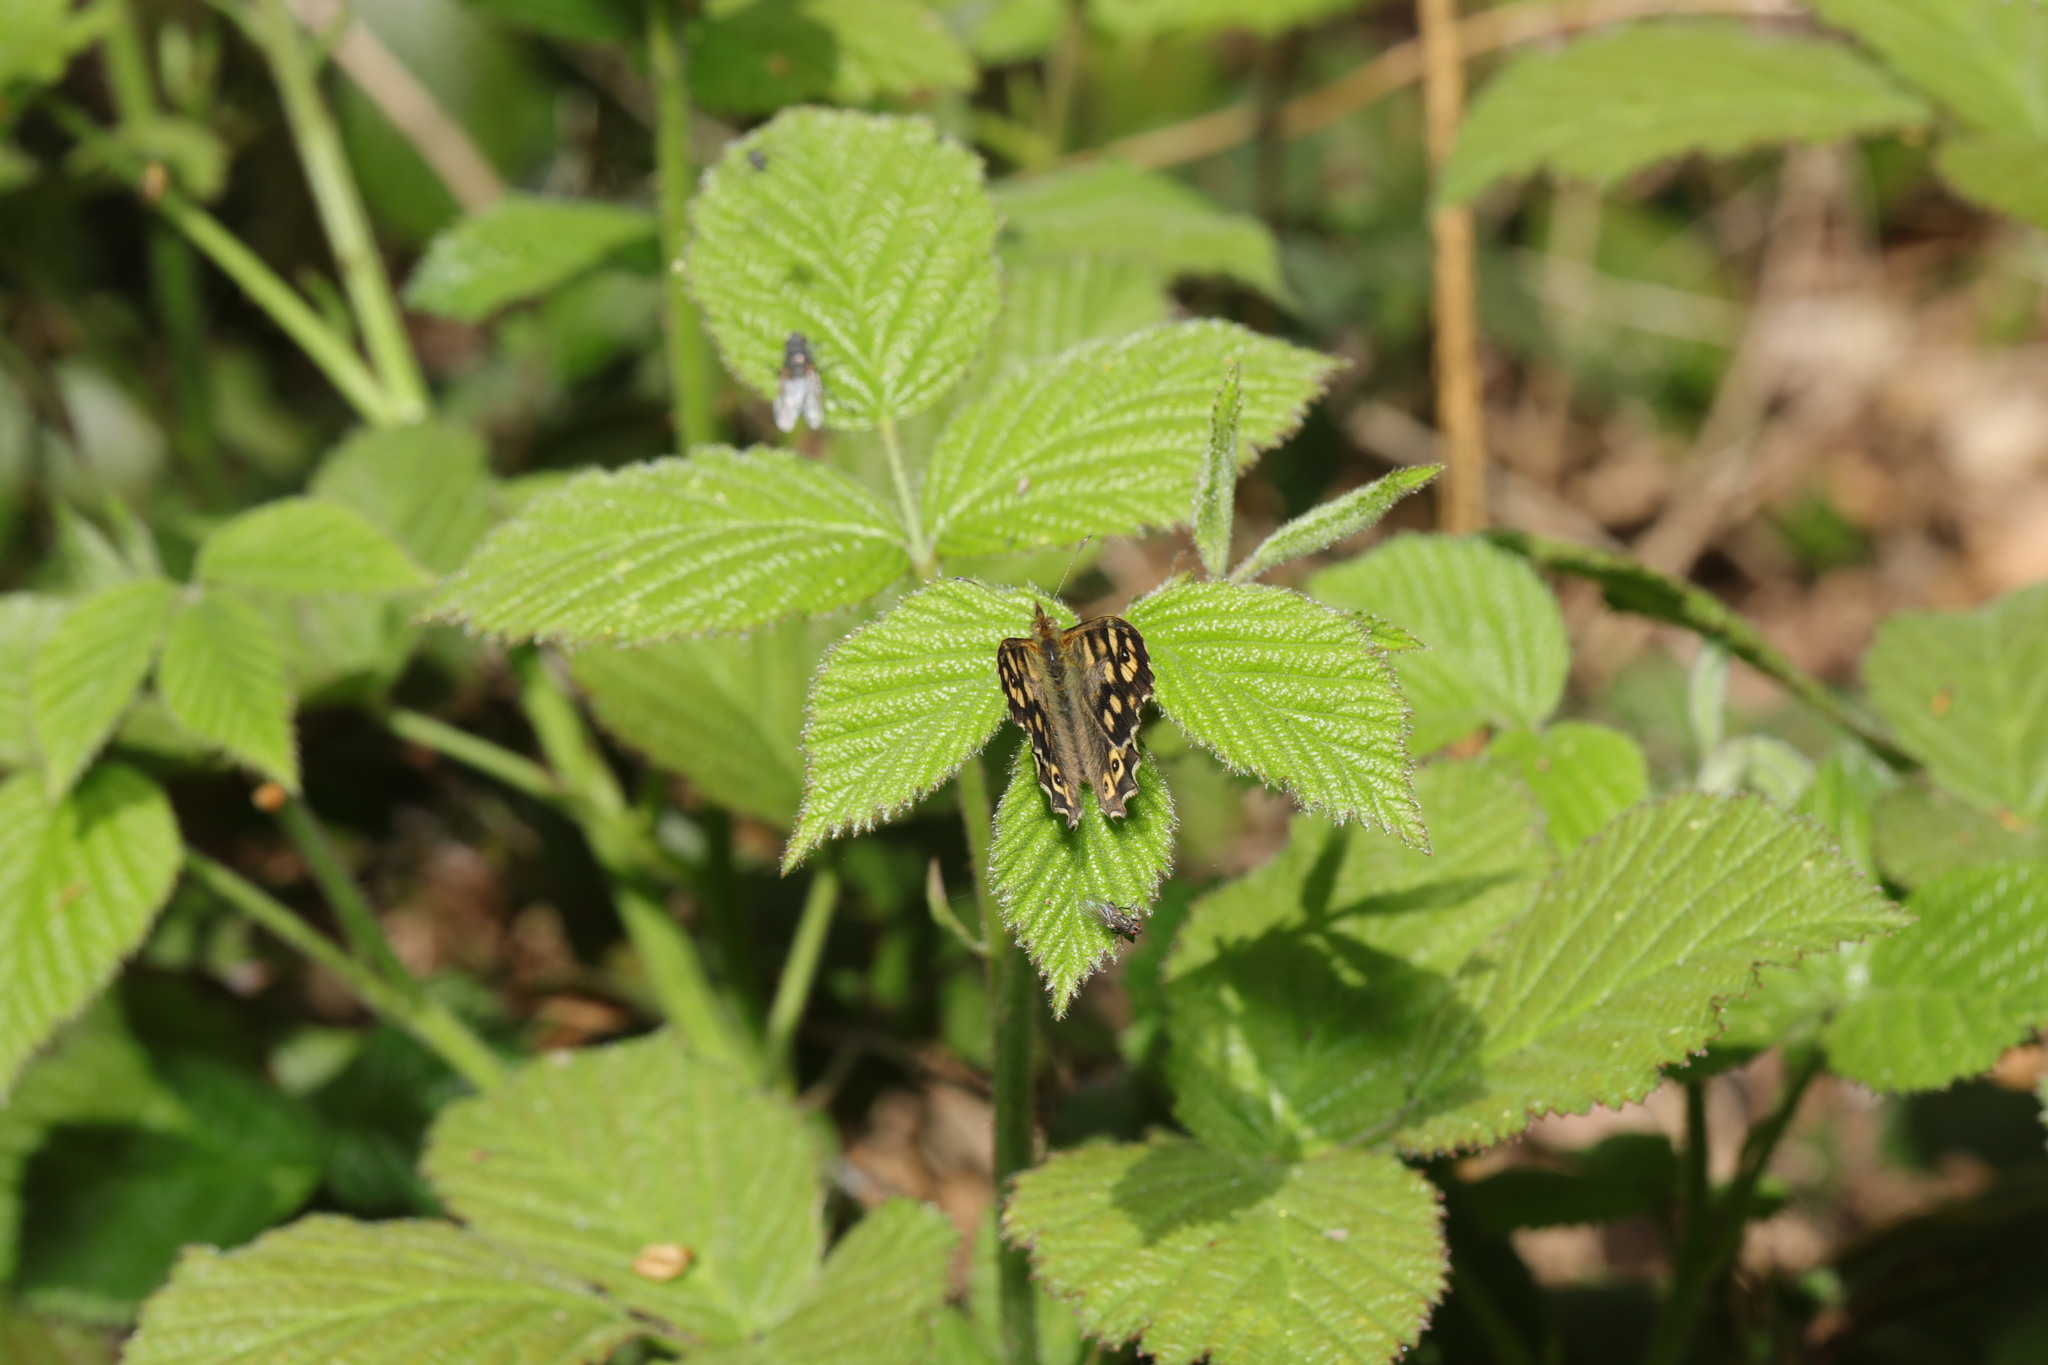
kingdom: Animalia
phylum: Arthropoda
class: Insecta
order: Lepidoptera
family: Nymphalidae
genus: Pararge
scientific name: Pararge aegeria
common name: Speckled wood
